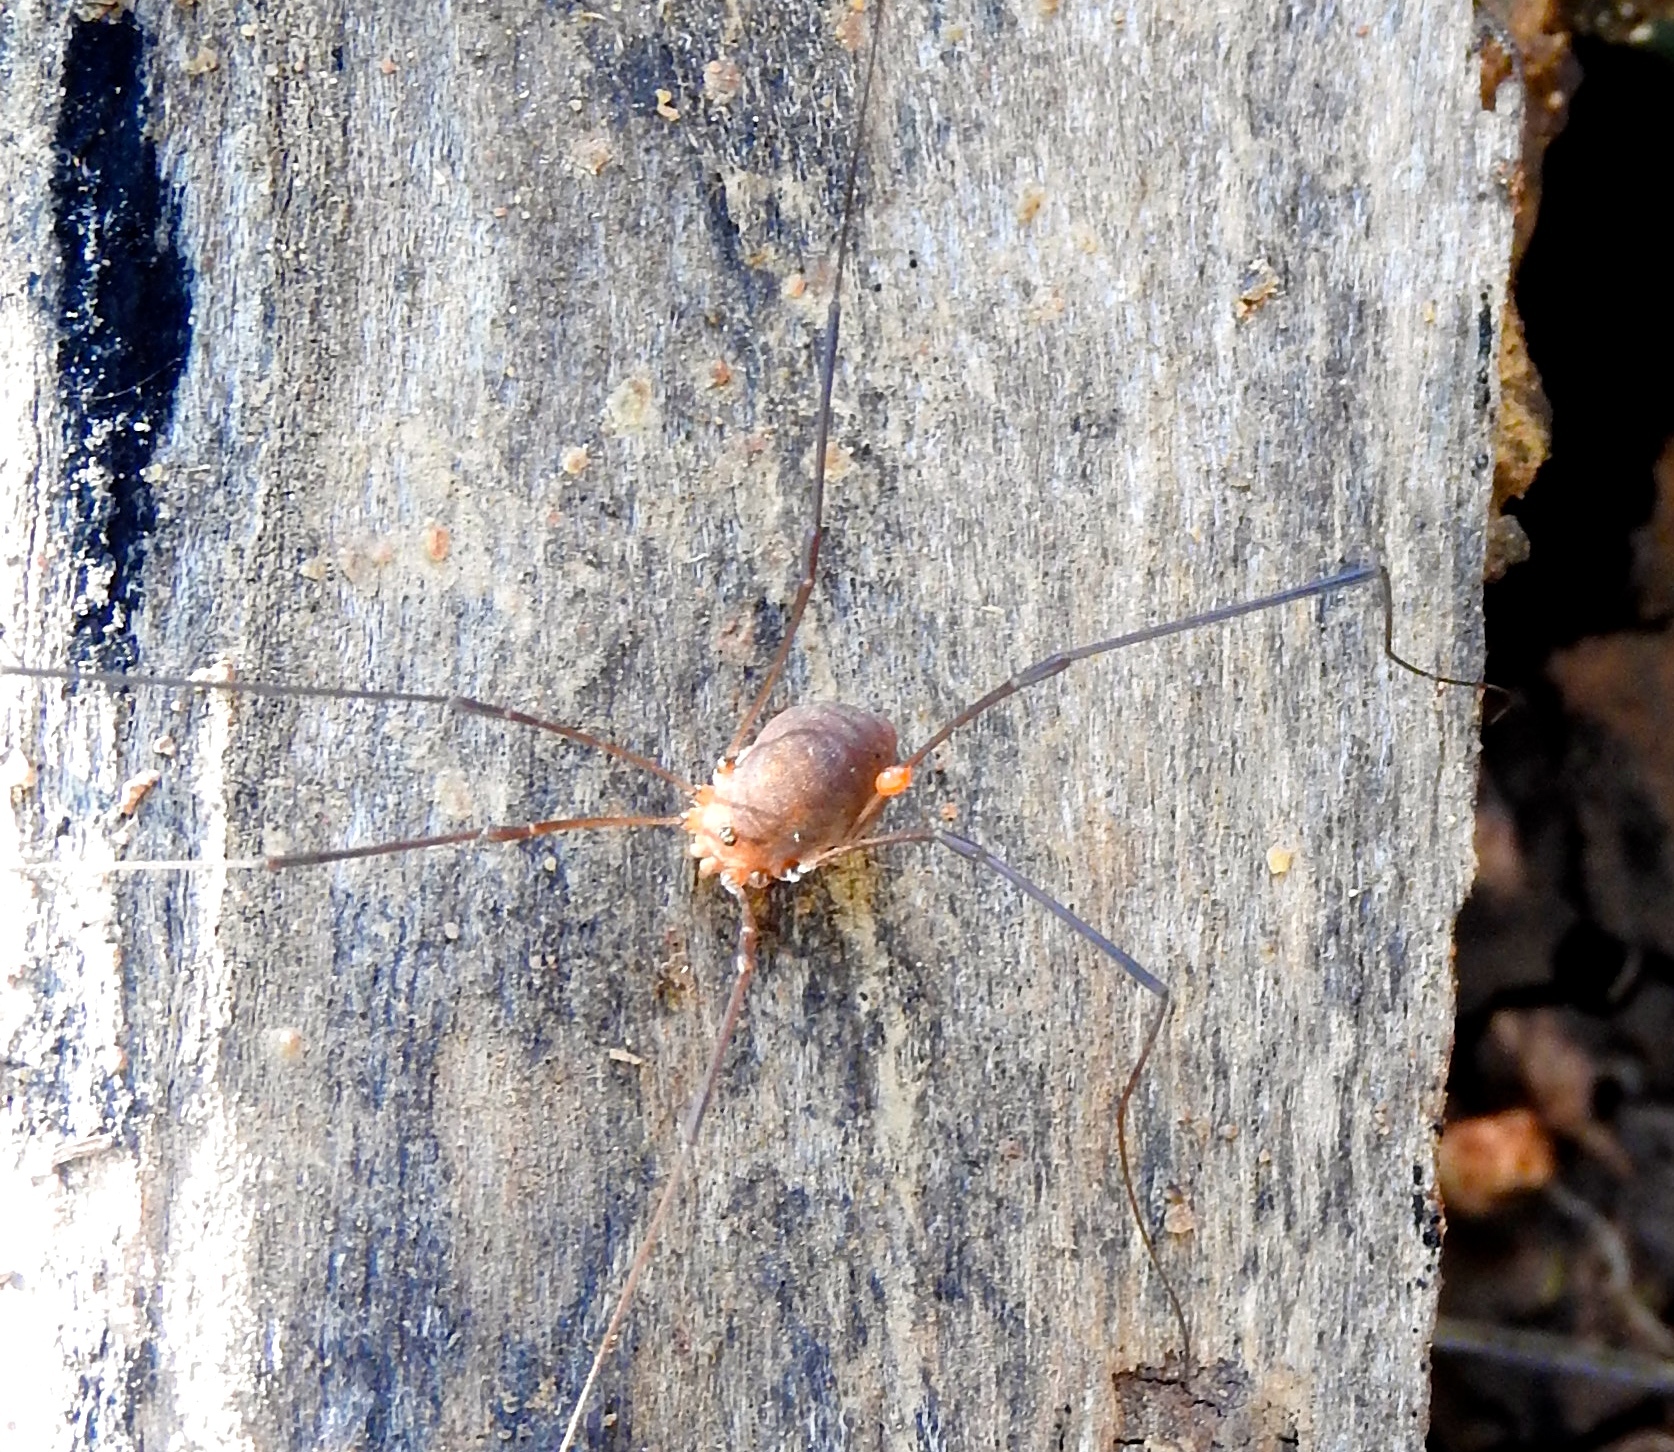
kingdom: Animalia
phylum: Arthropoda
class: Arachnida
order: Trombidiformes
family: Erythraeidae
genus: Leptus
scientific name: Leptus
